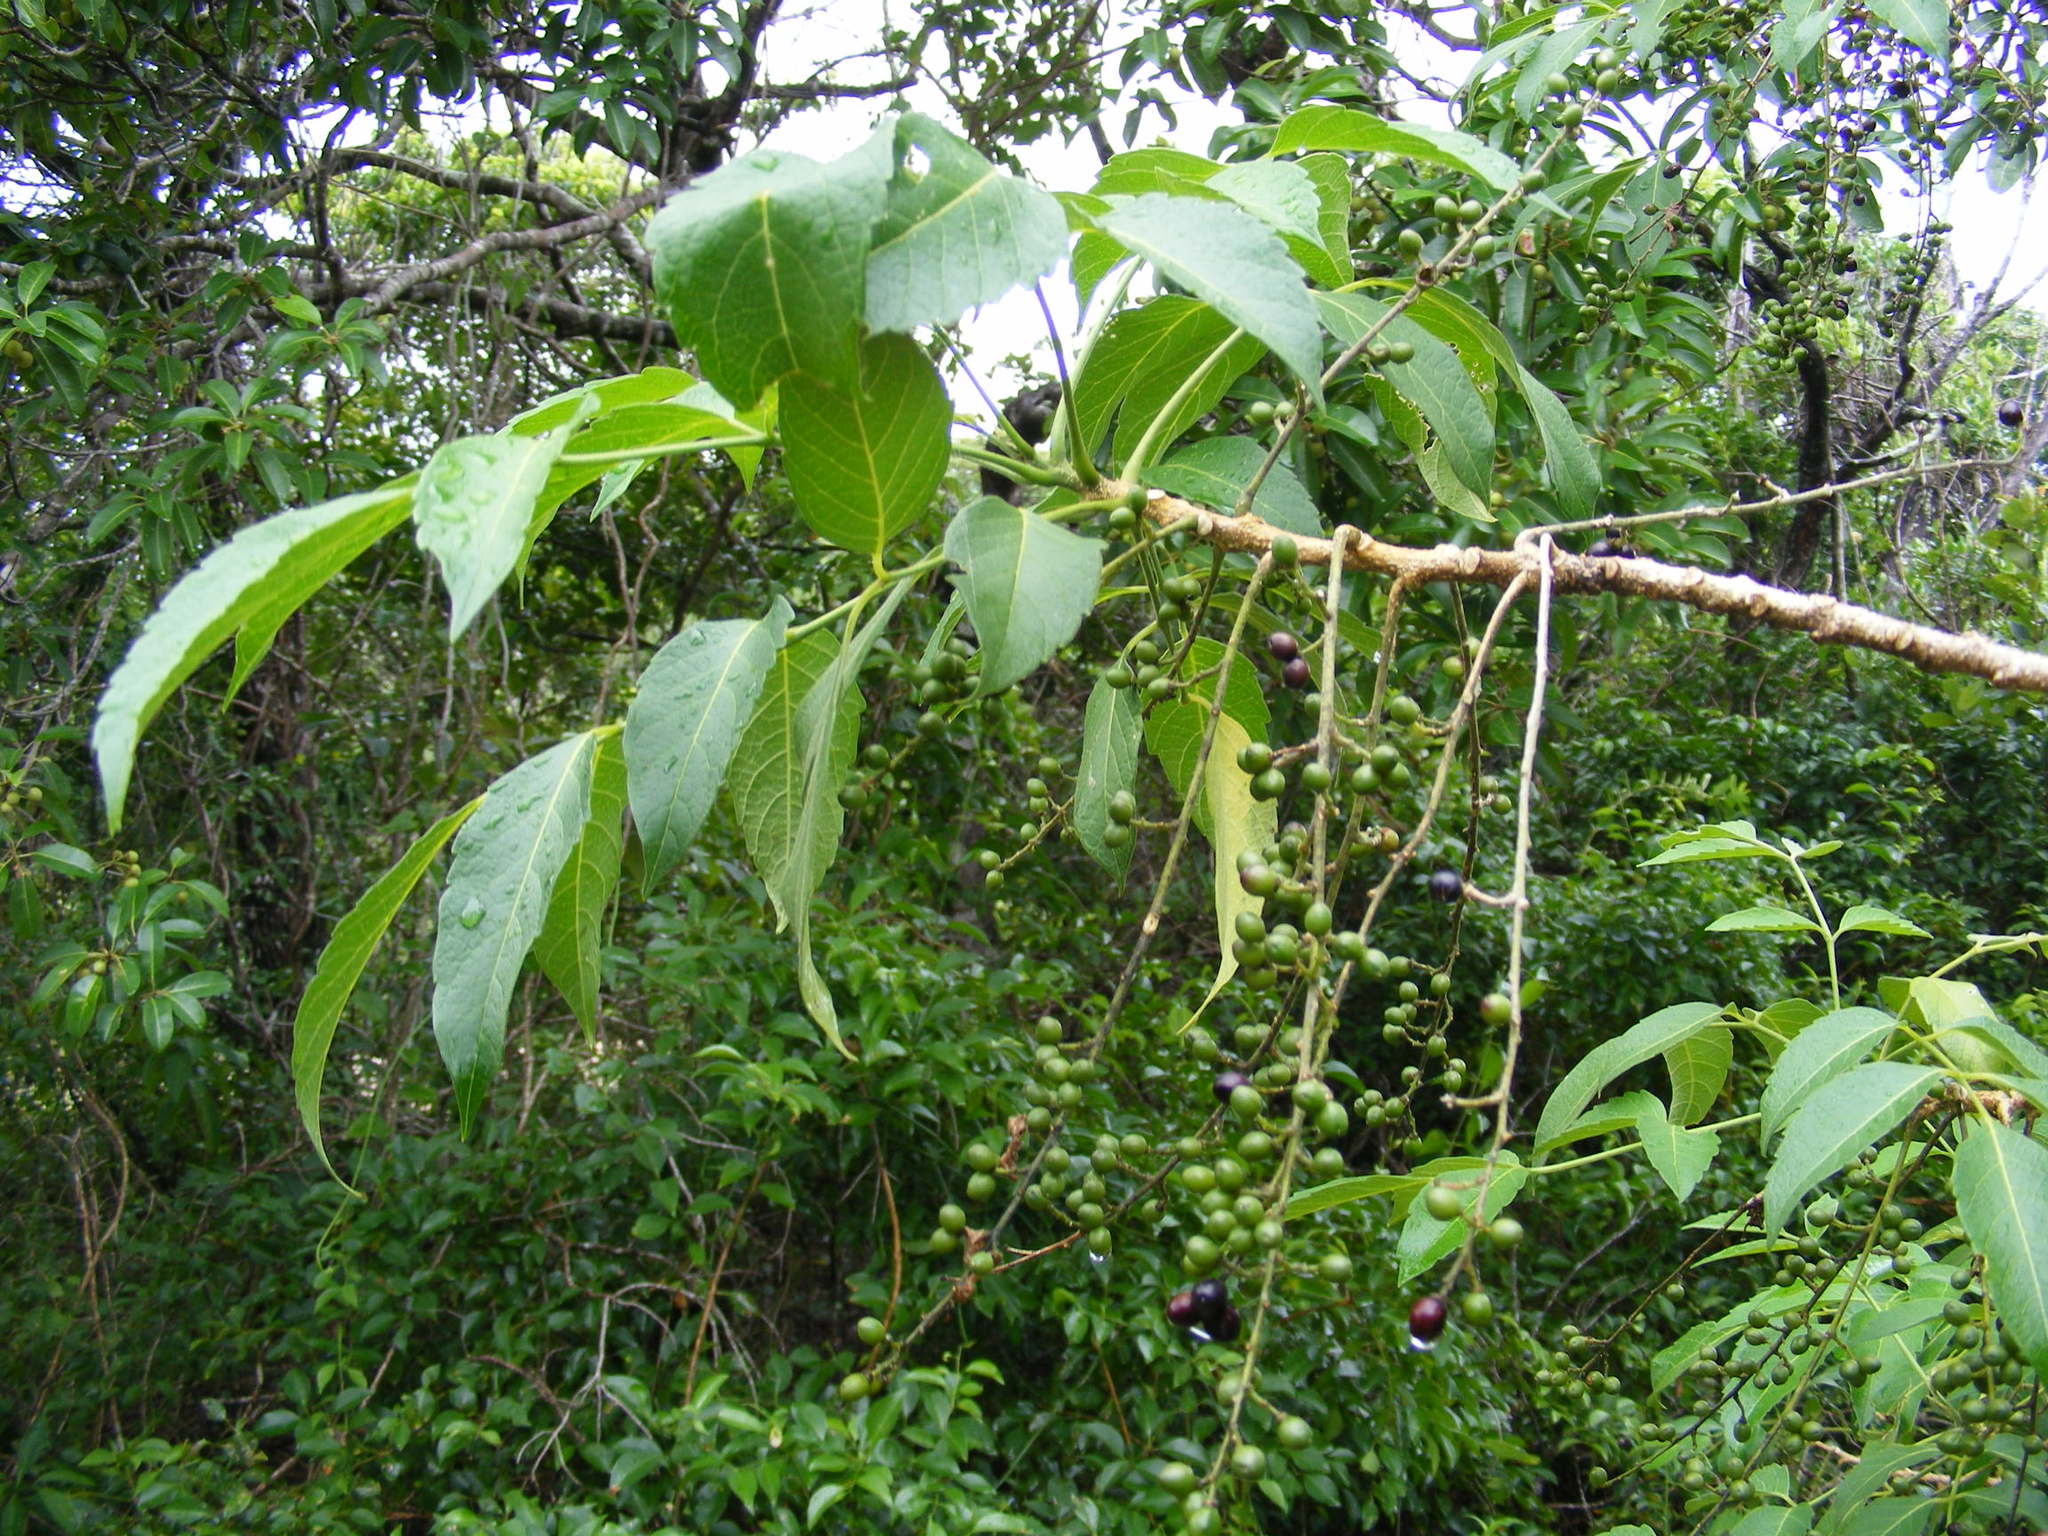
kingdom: Plantae
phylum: Tracheophyta
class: Magnoliopsida
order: Sapindales
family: Simaroubaceae
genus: Brucea
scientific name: Brucea javanica
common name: Macassar kernels
